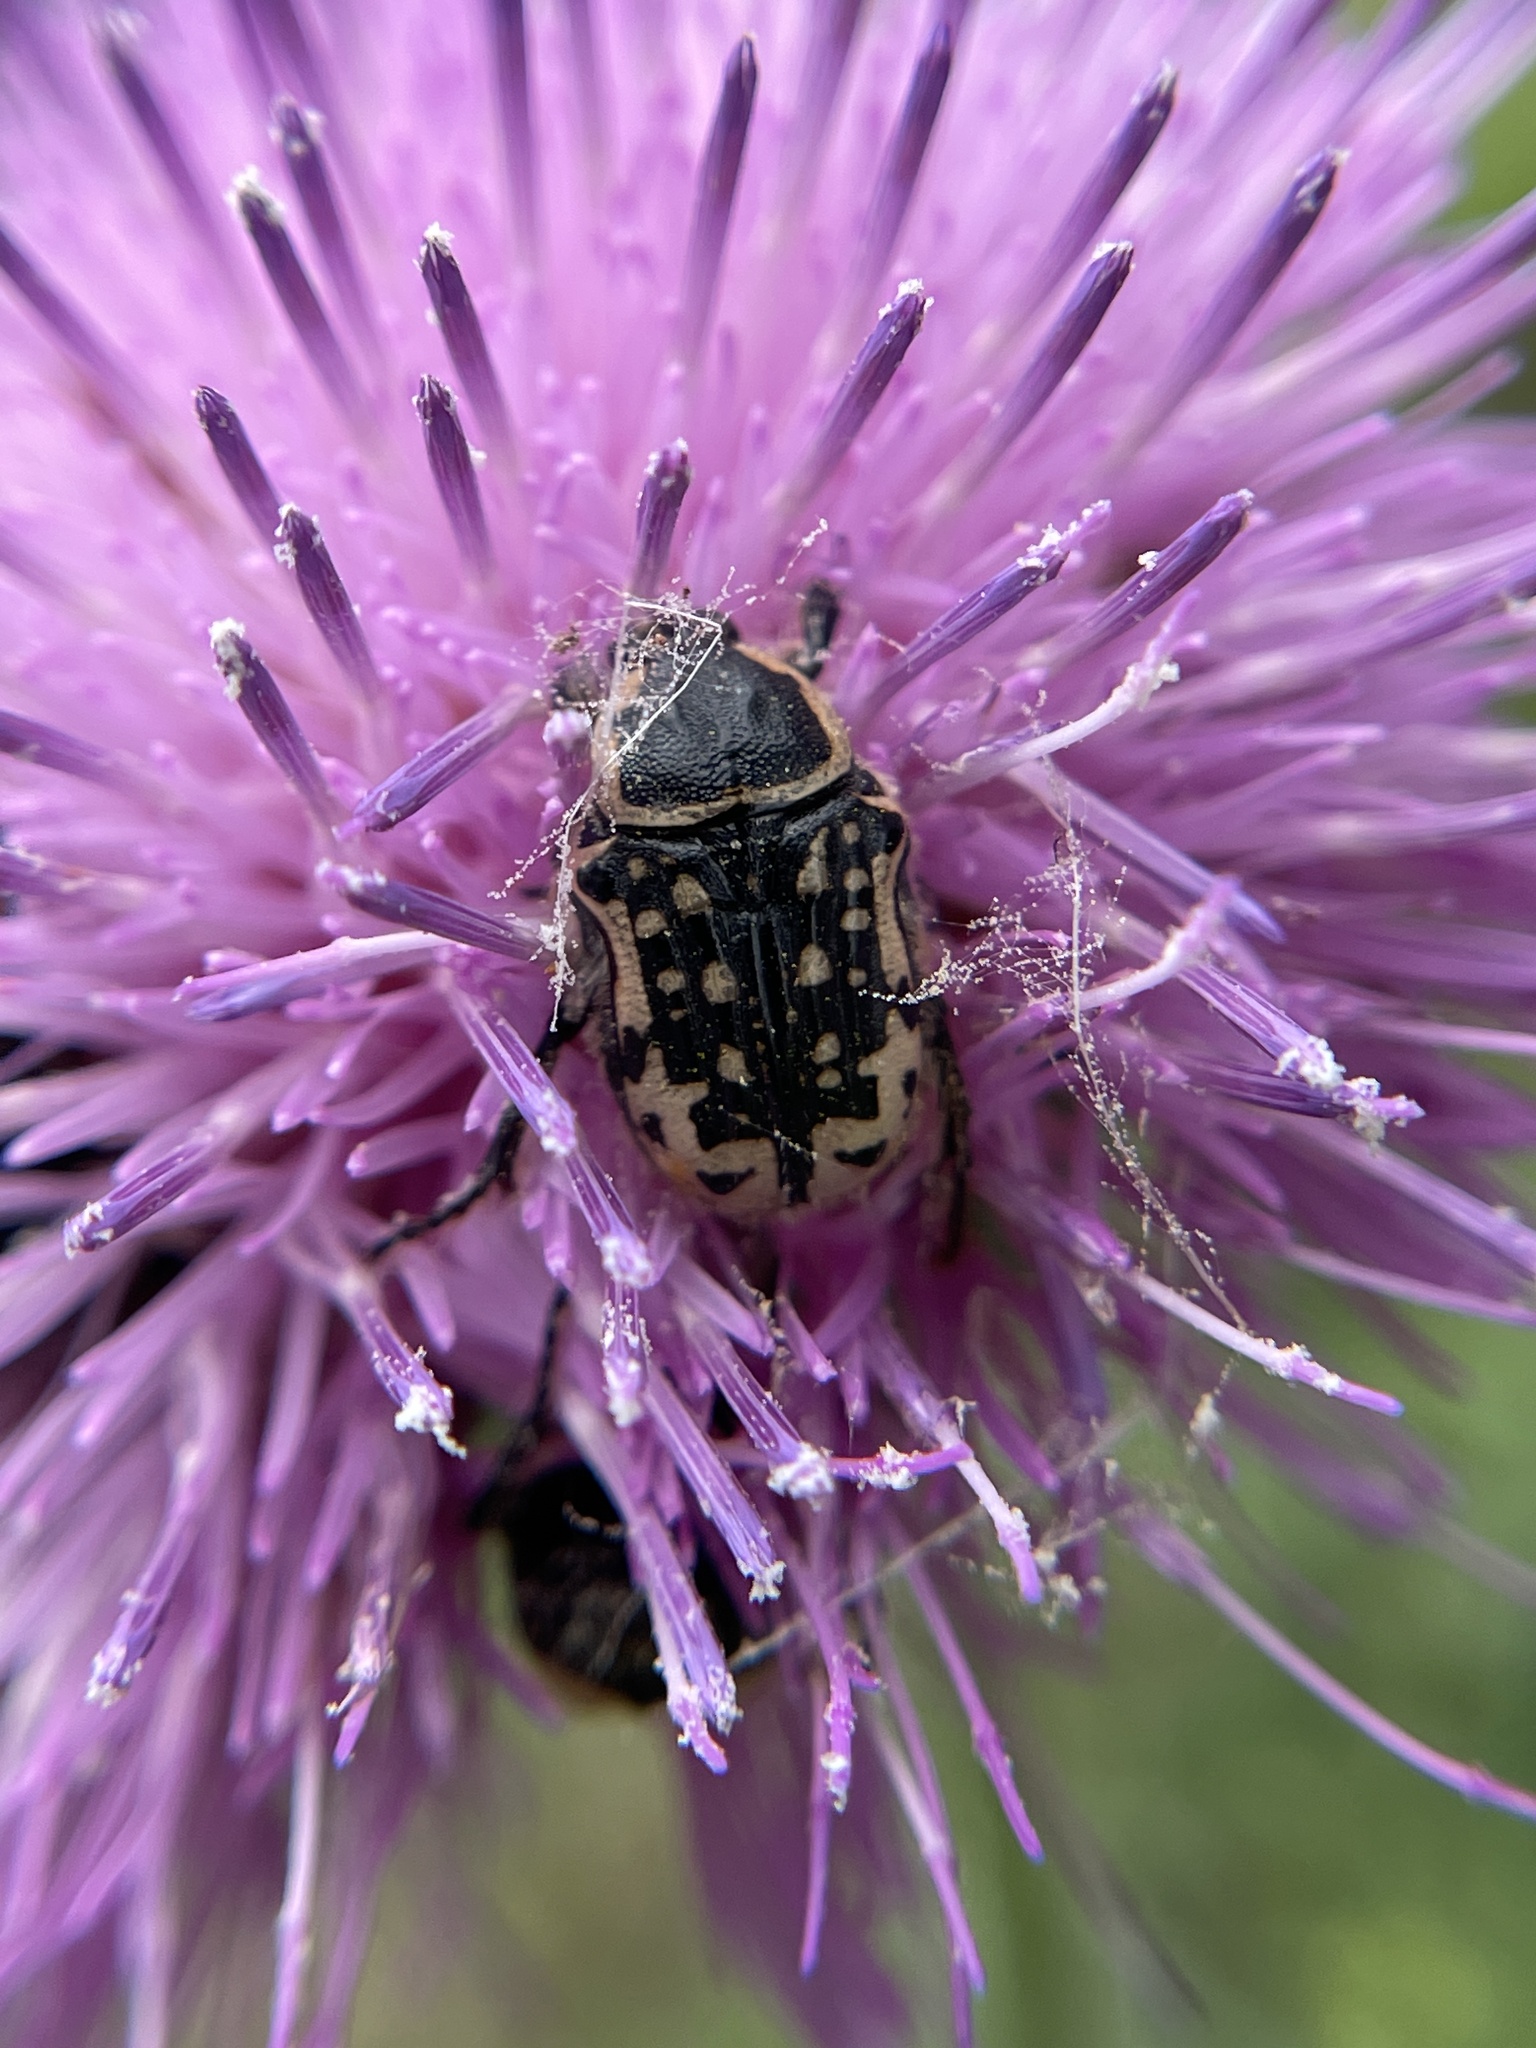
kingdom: Animalia
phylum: Arthropoda
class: Insecta
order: Coleoptera
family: Scarabaeidae
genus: Euphoria
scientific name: Euphoria kernii
